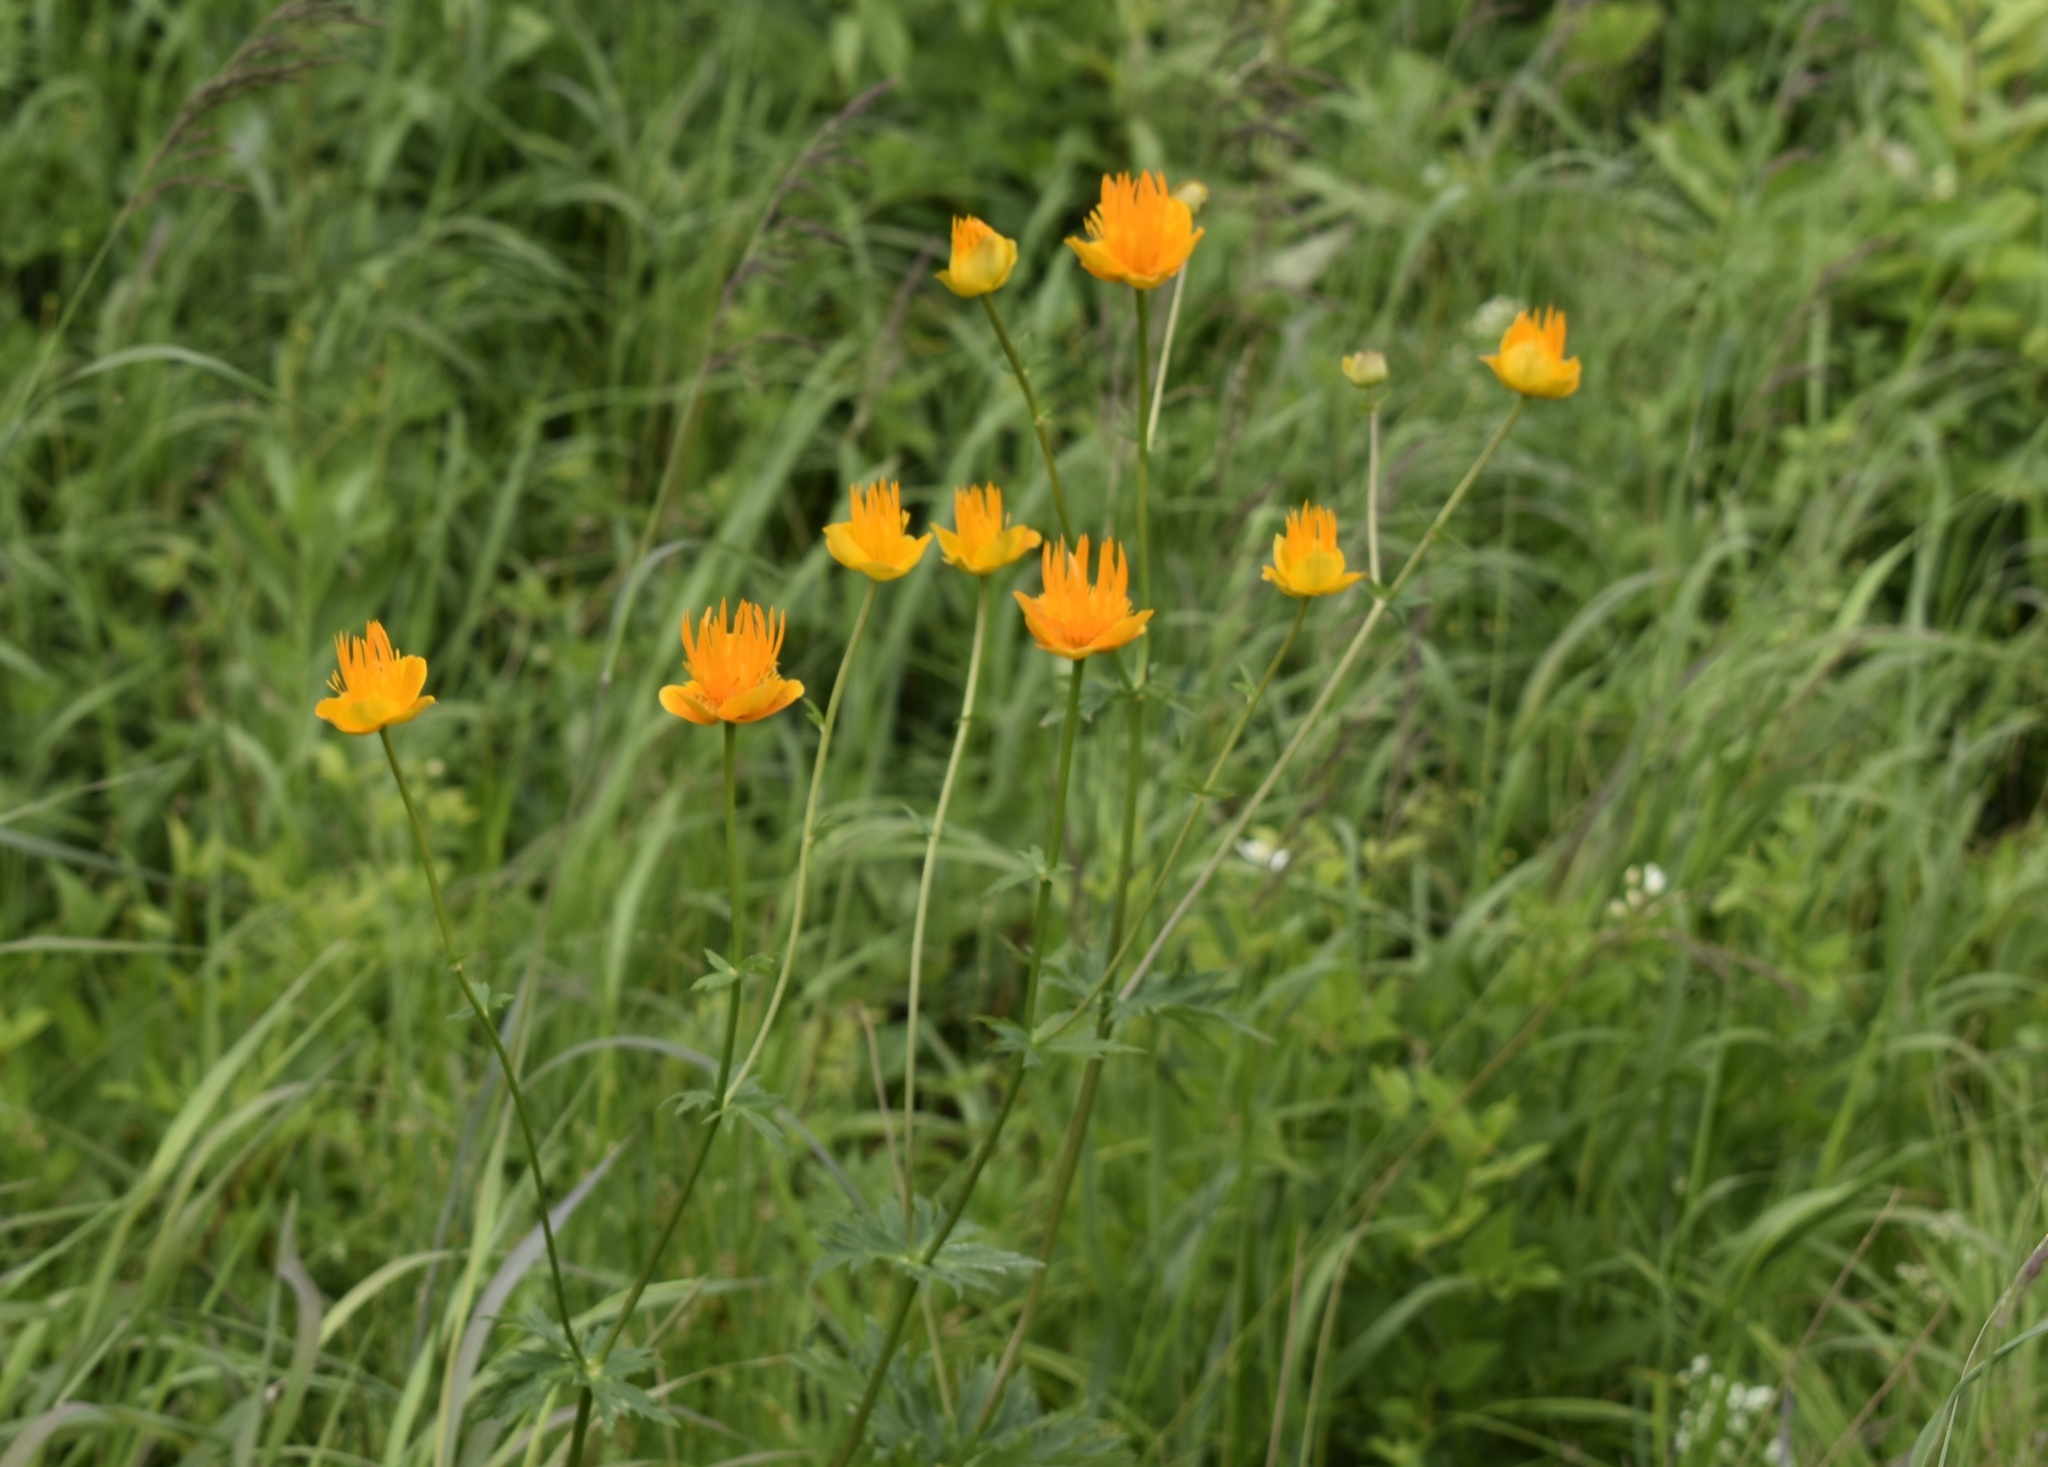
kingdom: Plantae
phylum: Tracheophyta
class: Magnoliopsida
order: Ranunculales
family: Ranunculaceae
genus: Trollius
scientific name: Trollius chinensis
